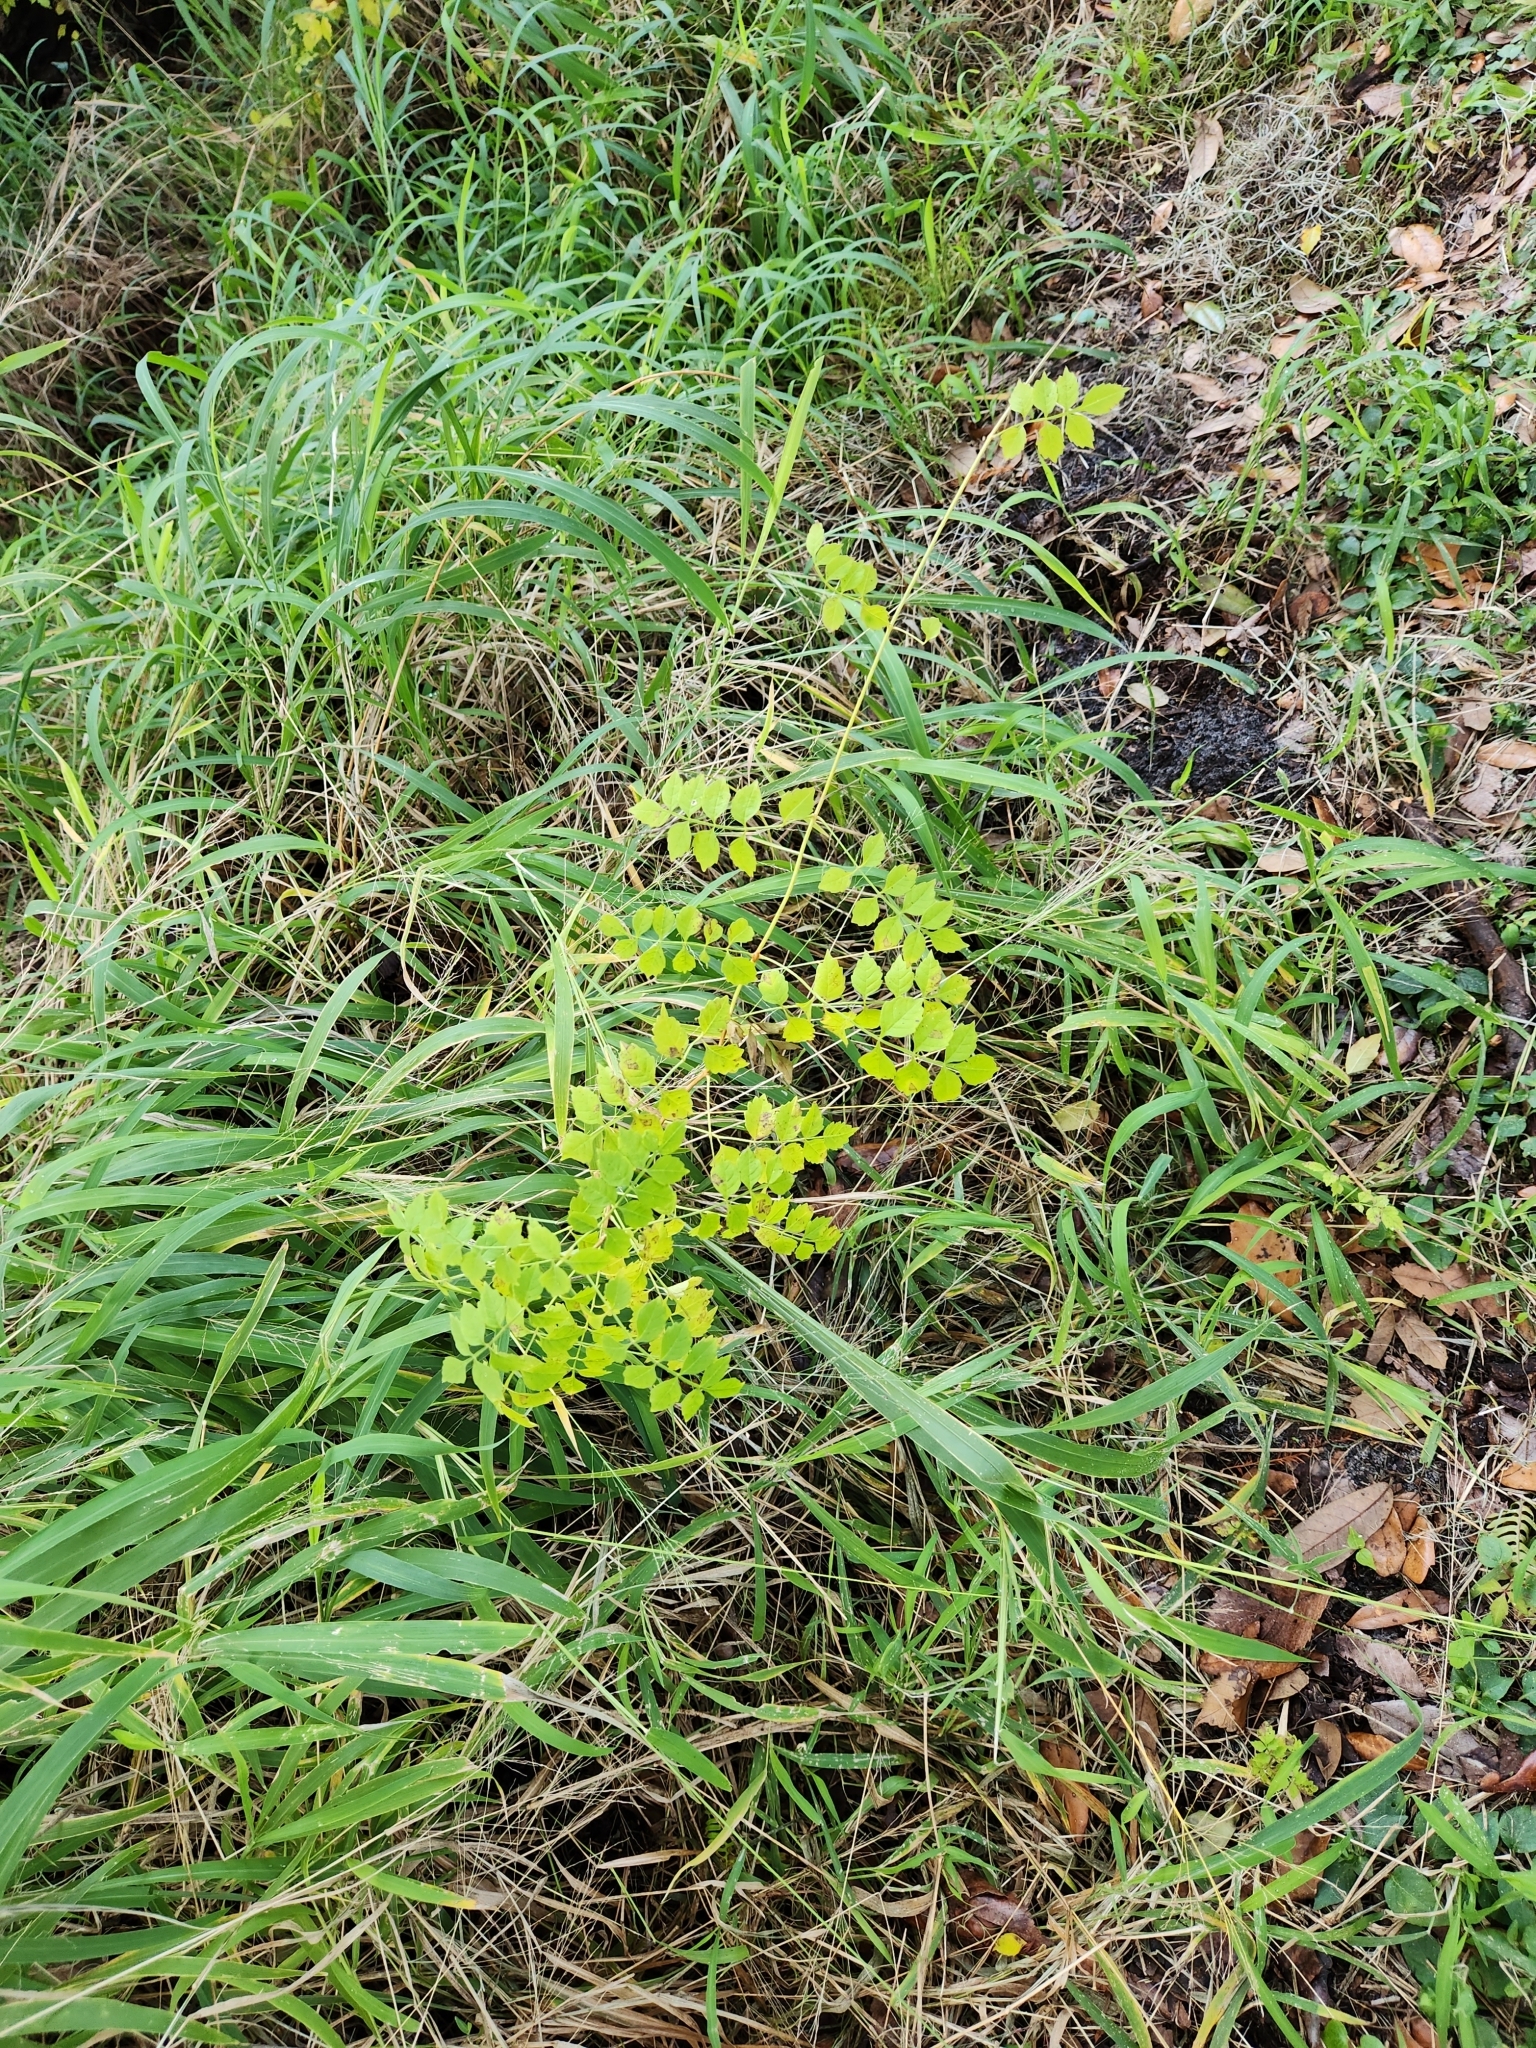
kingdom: Plantae
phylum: Tracheophyta
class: Magnoliopsida
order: Lamiales
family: Bignoniaceae
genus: Campsis
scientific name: Campsis radicans
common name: Trumpet-creeper
